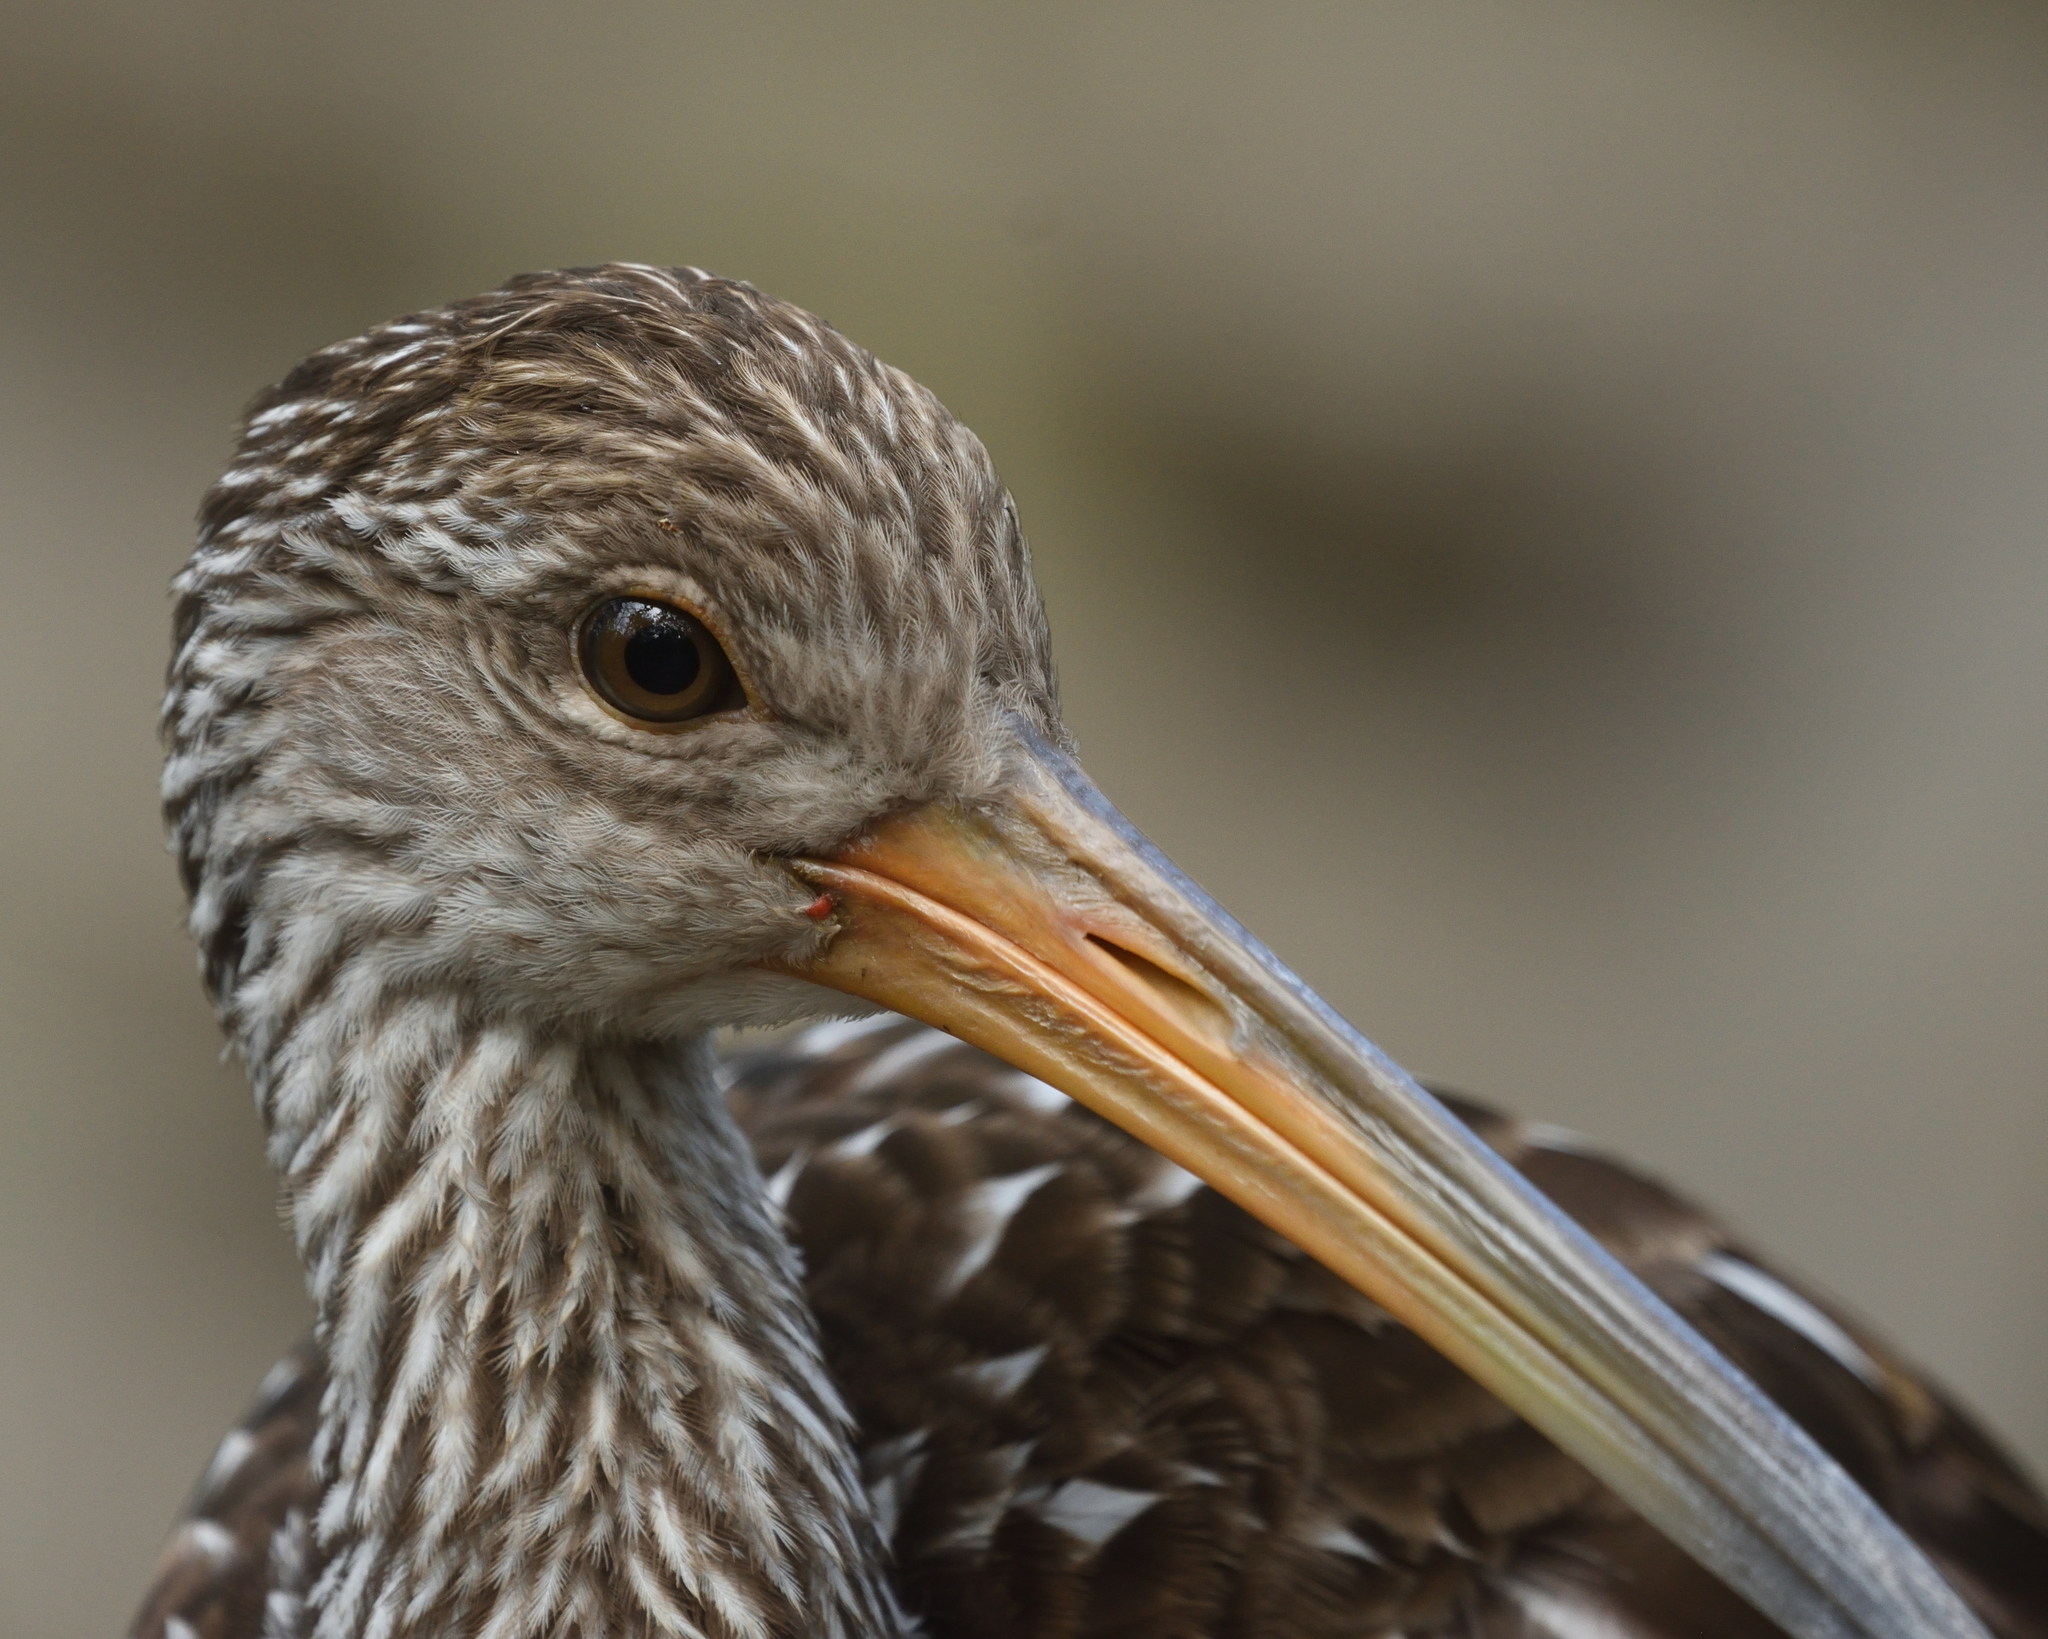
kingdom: Animalia
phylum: Chordata
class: Aves
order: Gruiformes
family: Aramidae
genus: Aramus
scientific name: Aramus guarauna
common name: Limpkin
